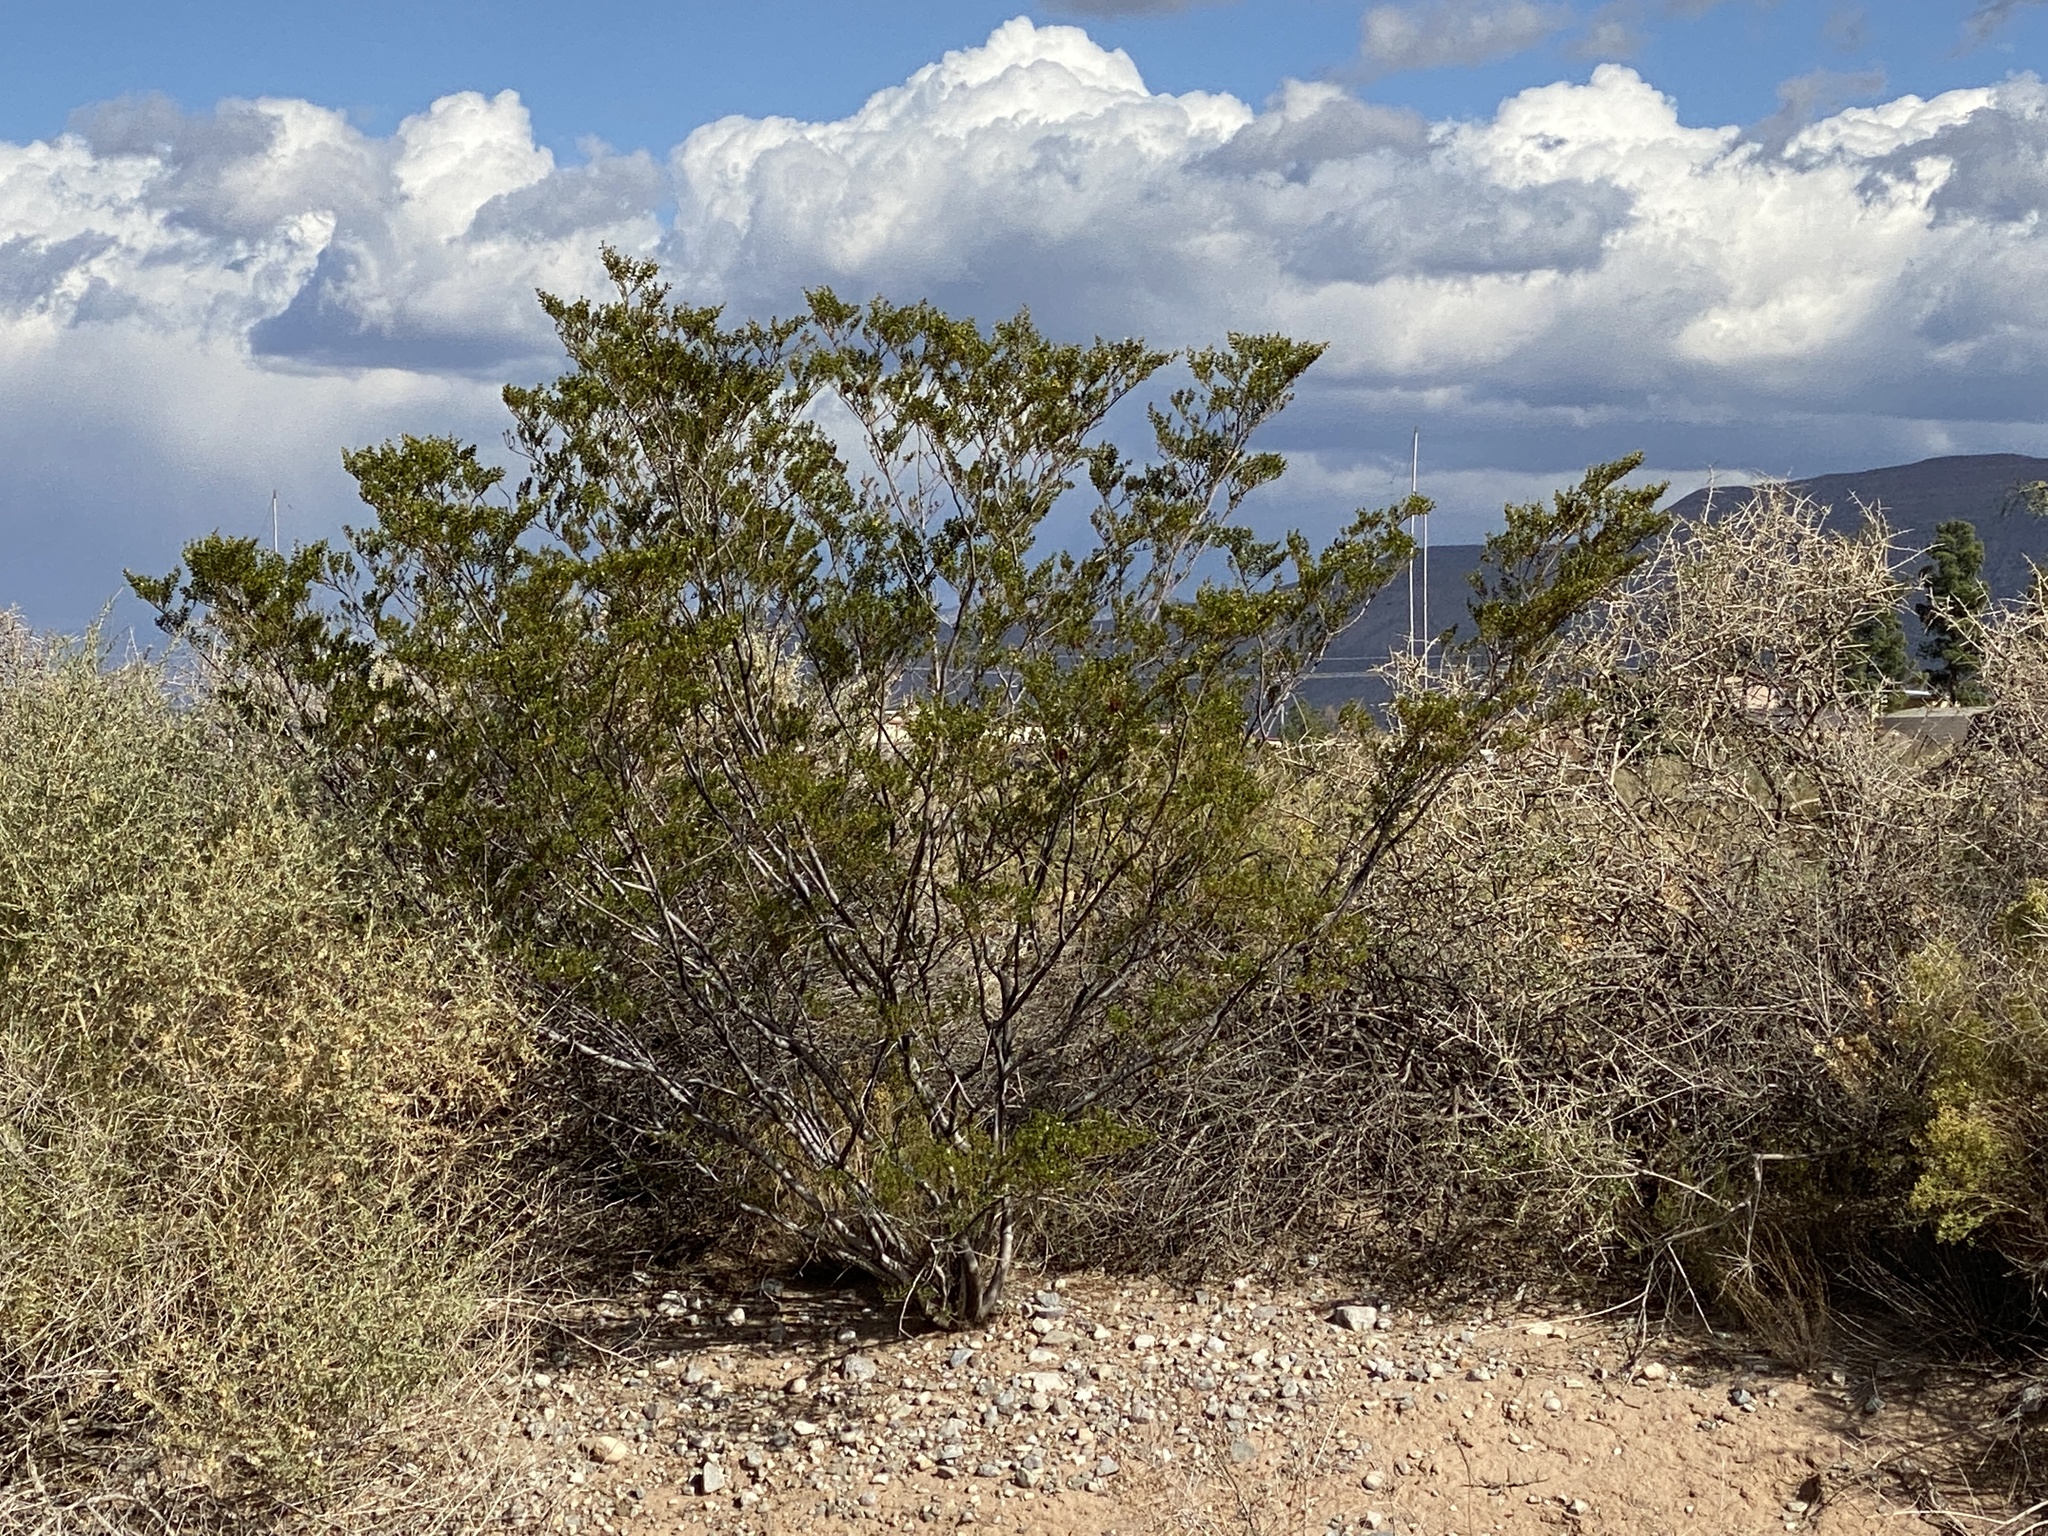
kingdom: Plantae
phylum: Tracheophyta
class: Magnoliopsida
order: Zygophyllales
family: Zygophyllaceae
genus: Larrea
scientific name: Larrea tridentata
